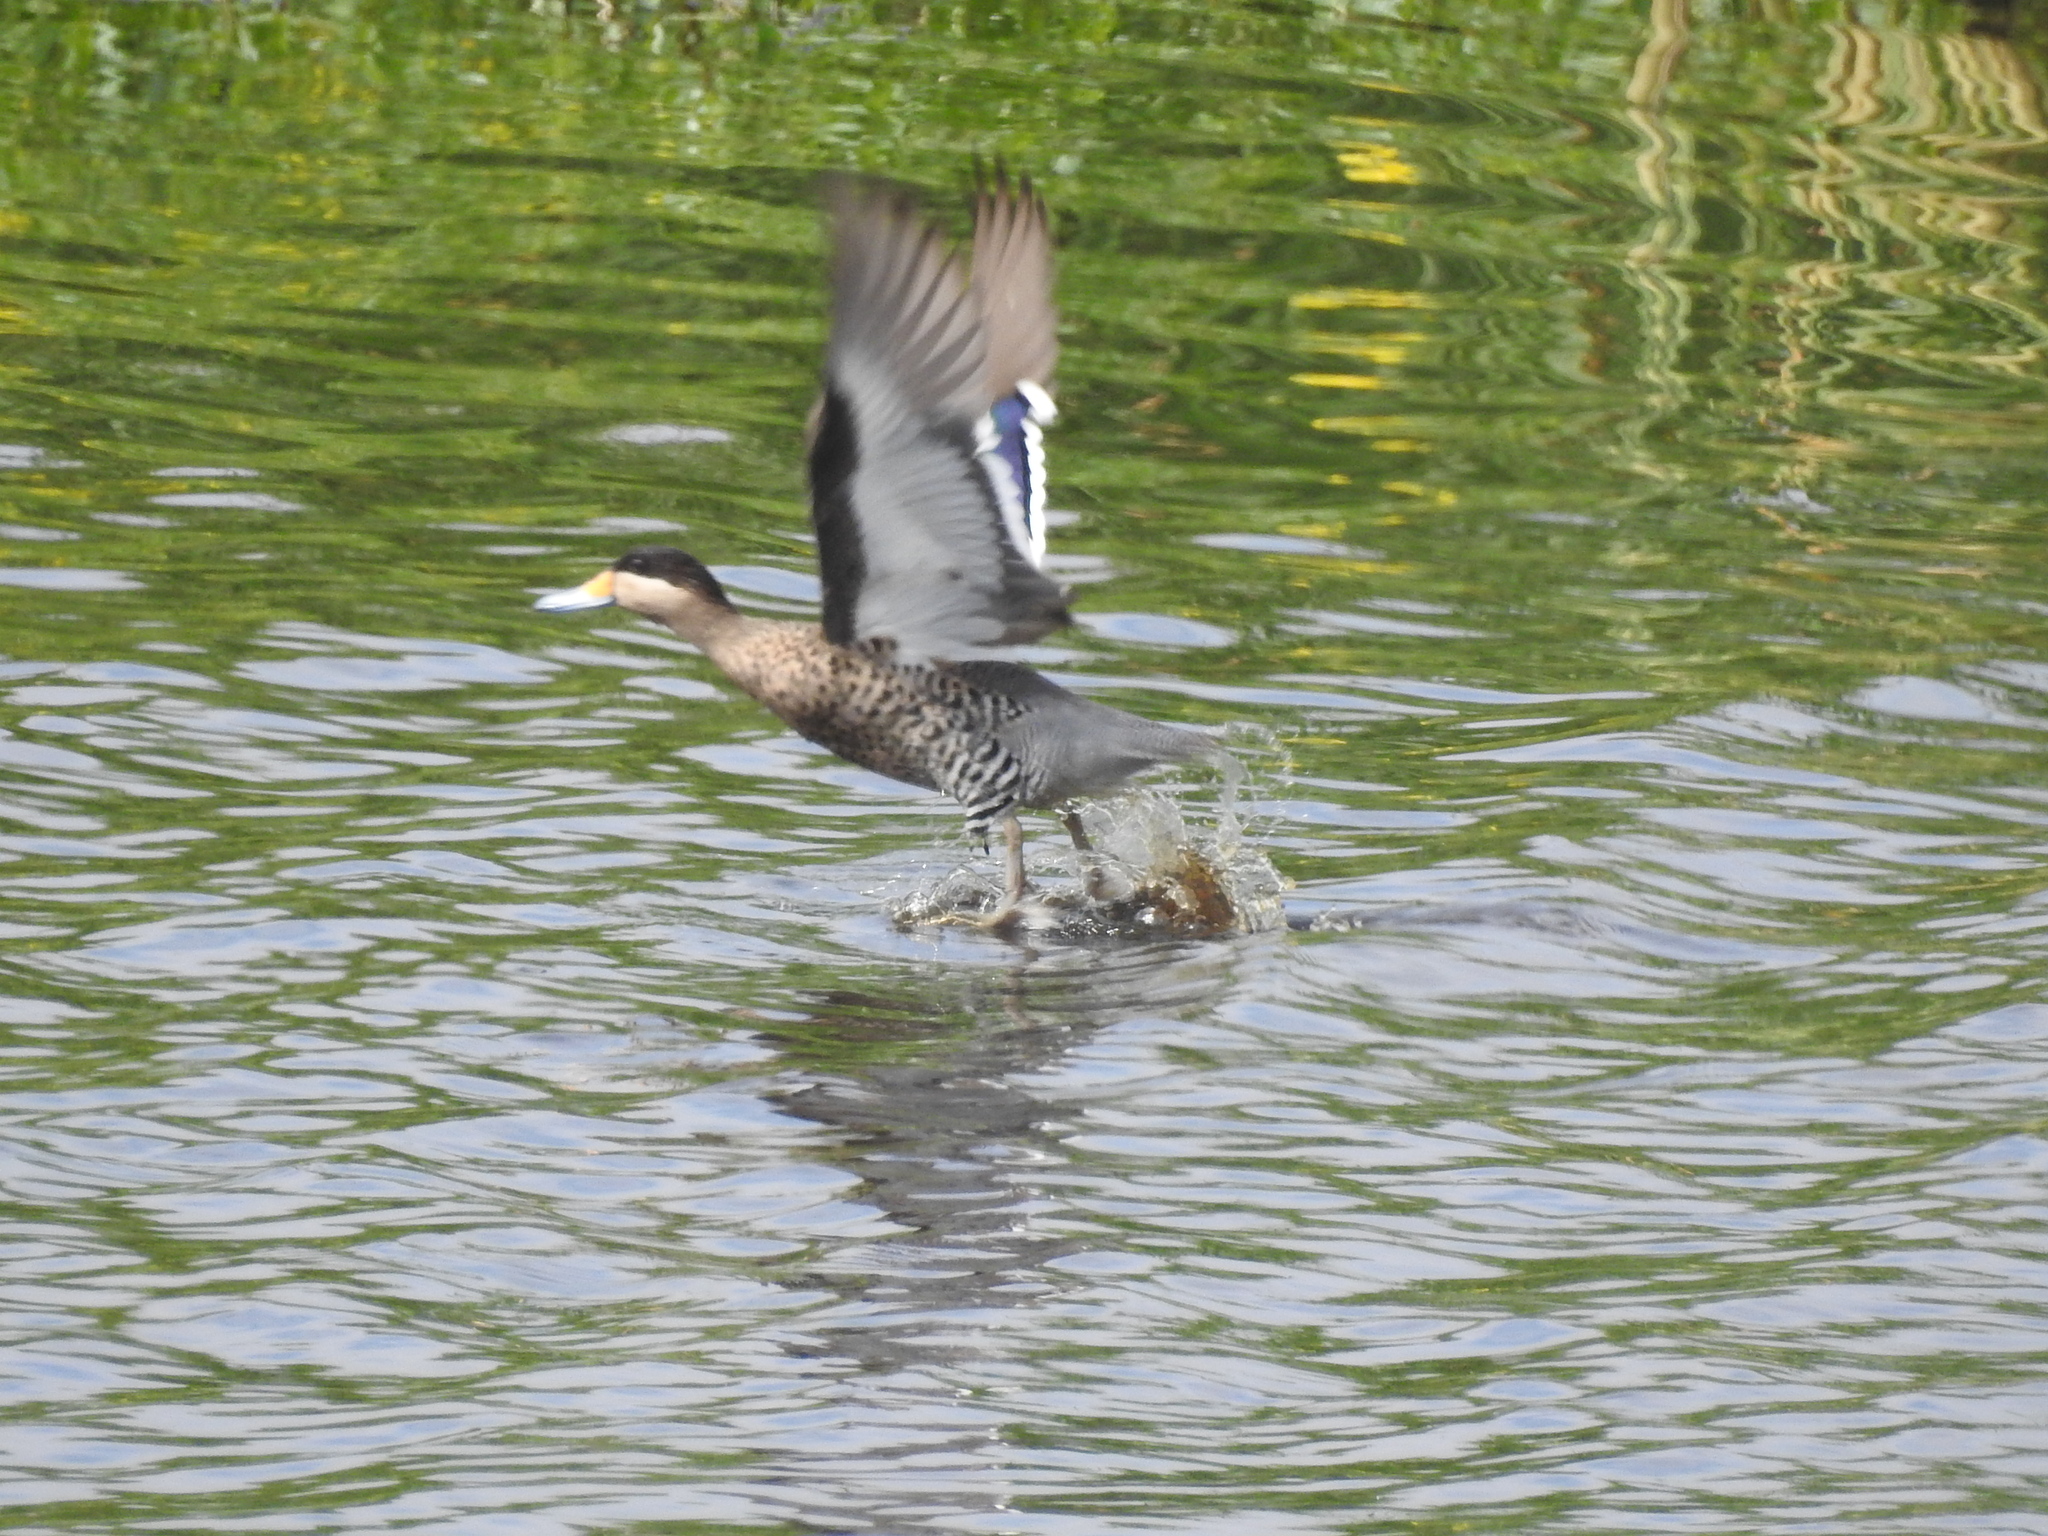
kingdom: Animalia
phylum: Chordata
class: Aves
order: Anseriformes
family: Anatidae
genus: Spatula
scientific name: Spatula versicolor
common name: Silver teal
